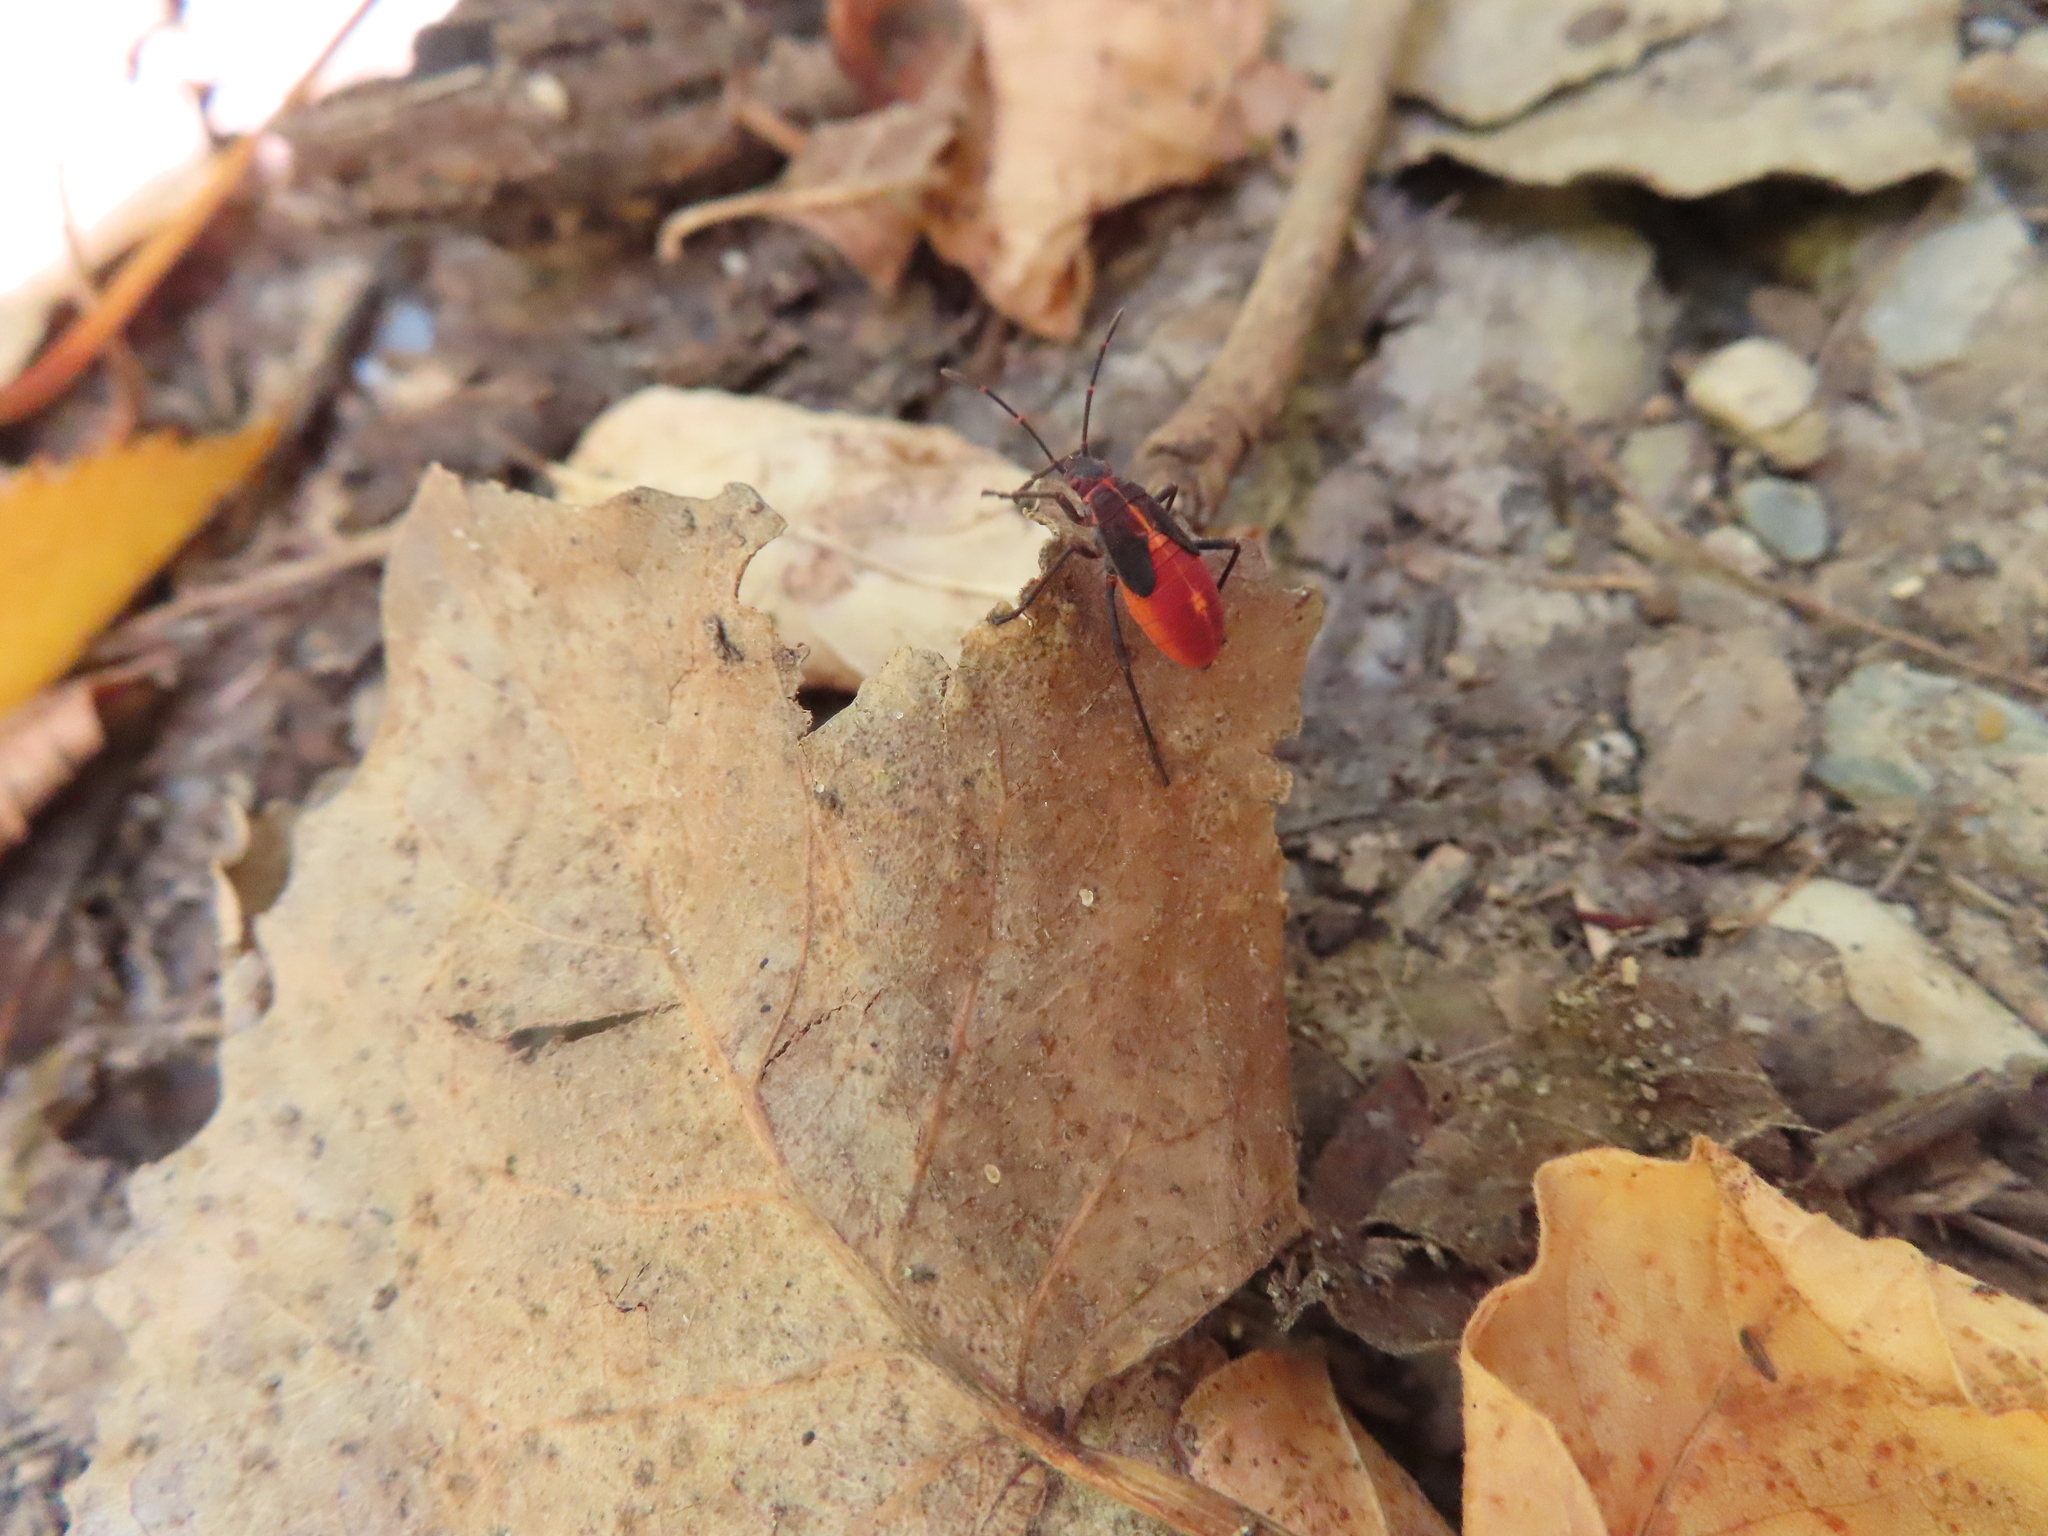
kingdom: Animalia
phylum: Arthropoda
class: Insecta
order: Hemiptera
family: Rhopalidae
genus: Boisea
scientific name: Boisea trivittata
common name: Boxelder bug
